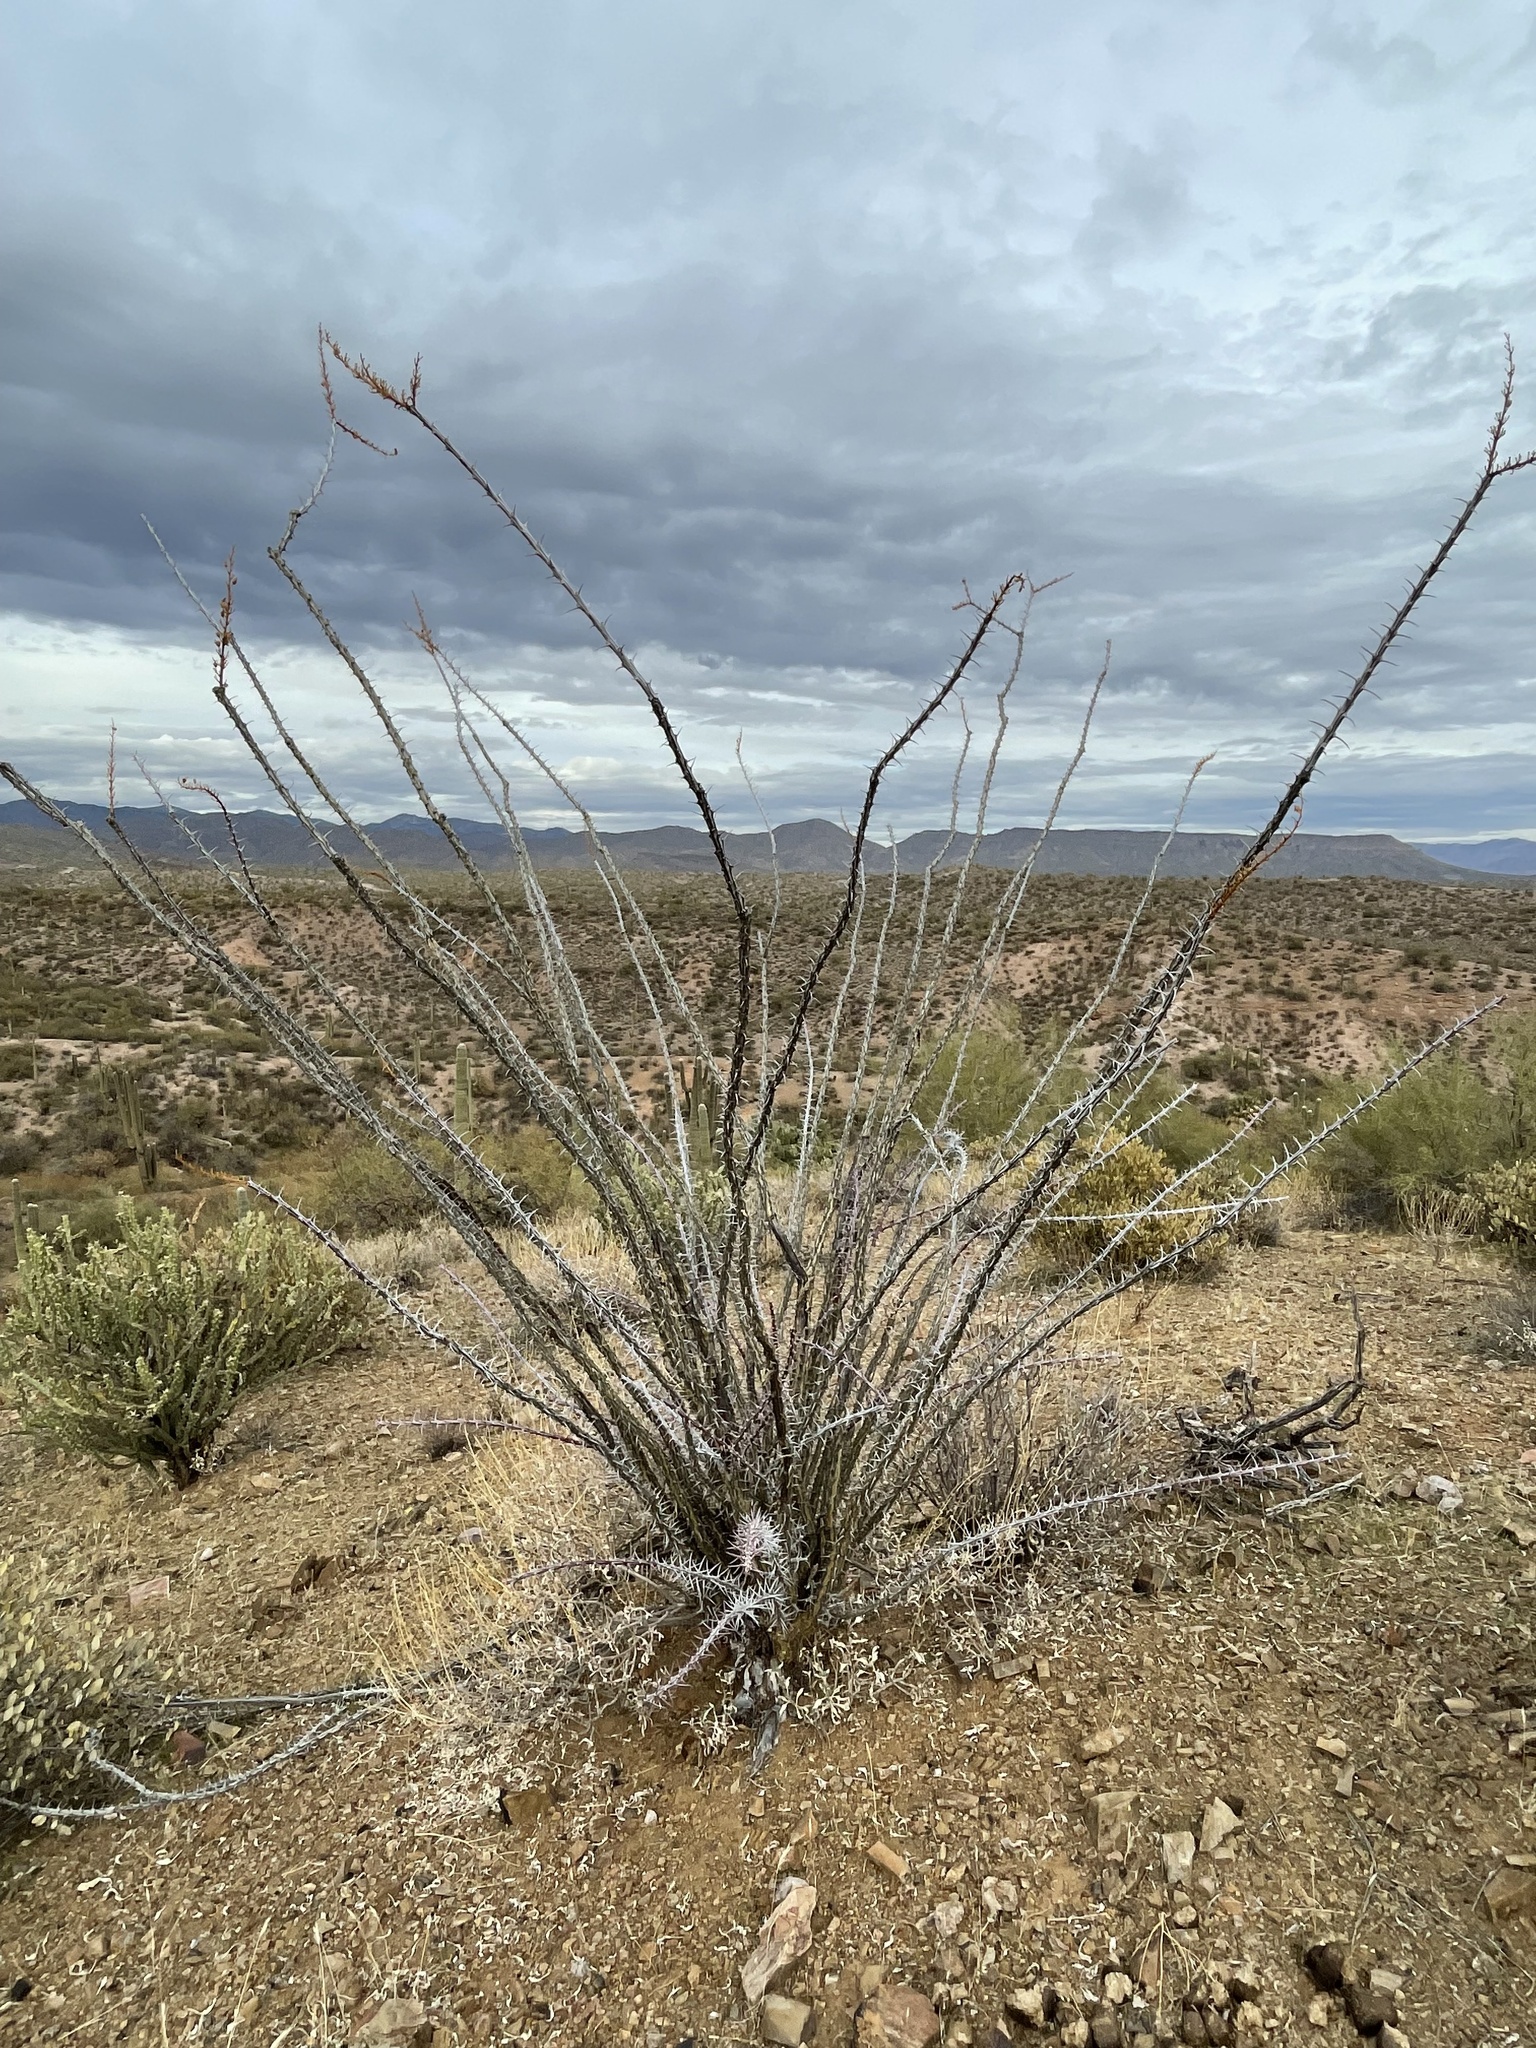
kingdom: Plantae
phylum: Tracheophyta
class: Magnoliopsida
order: Ericales
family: Fouquieriaceae
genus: Fouquieria
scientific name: Fouquieria splendens
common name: Vine-cactus
